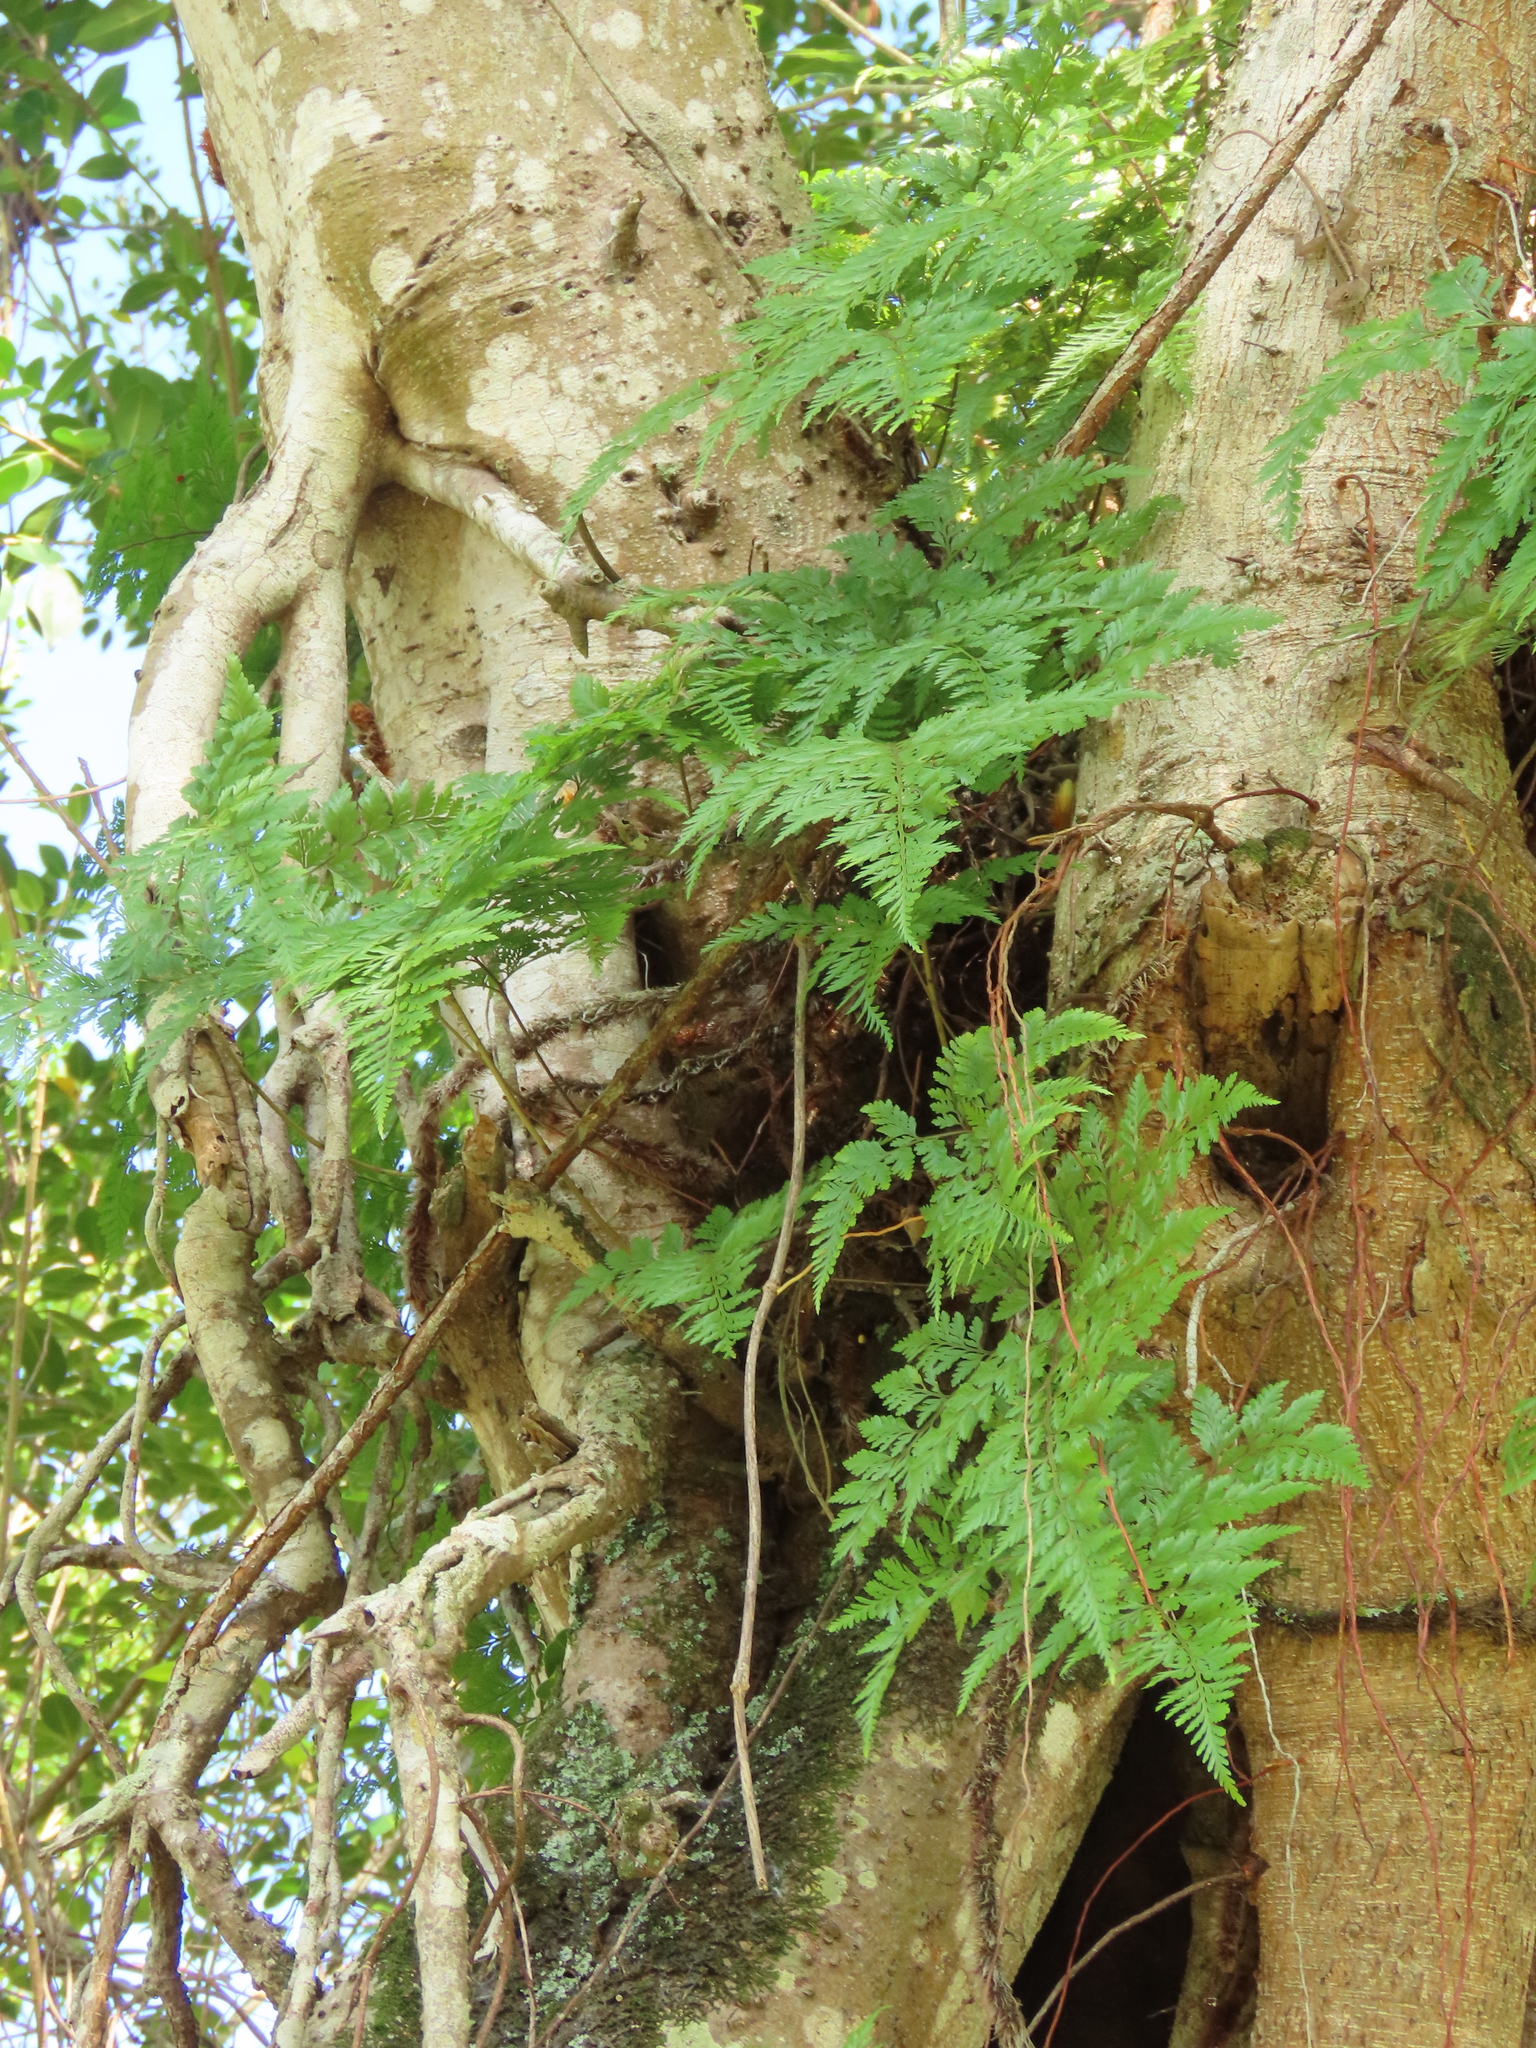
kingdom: Plantae
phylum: Tracheophyta
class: Polypodiopsida
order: Polypodiales
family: Davalliaceae
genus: Davallia
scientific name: Davallia trichomanoides
